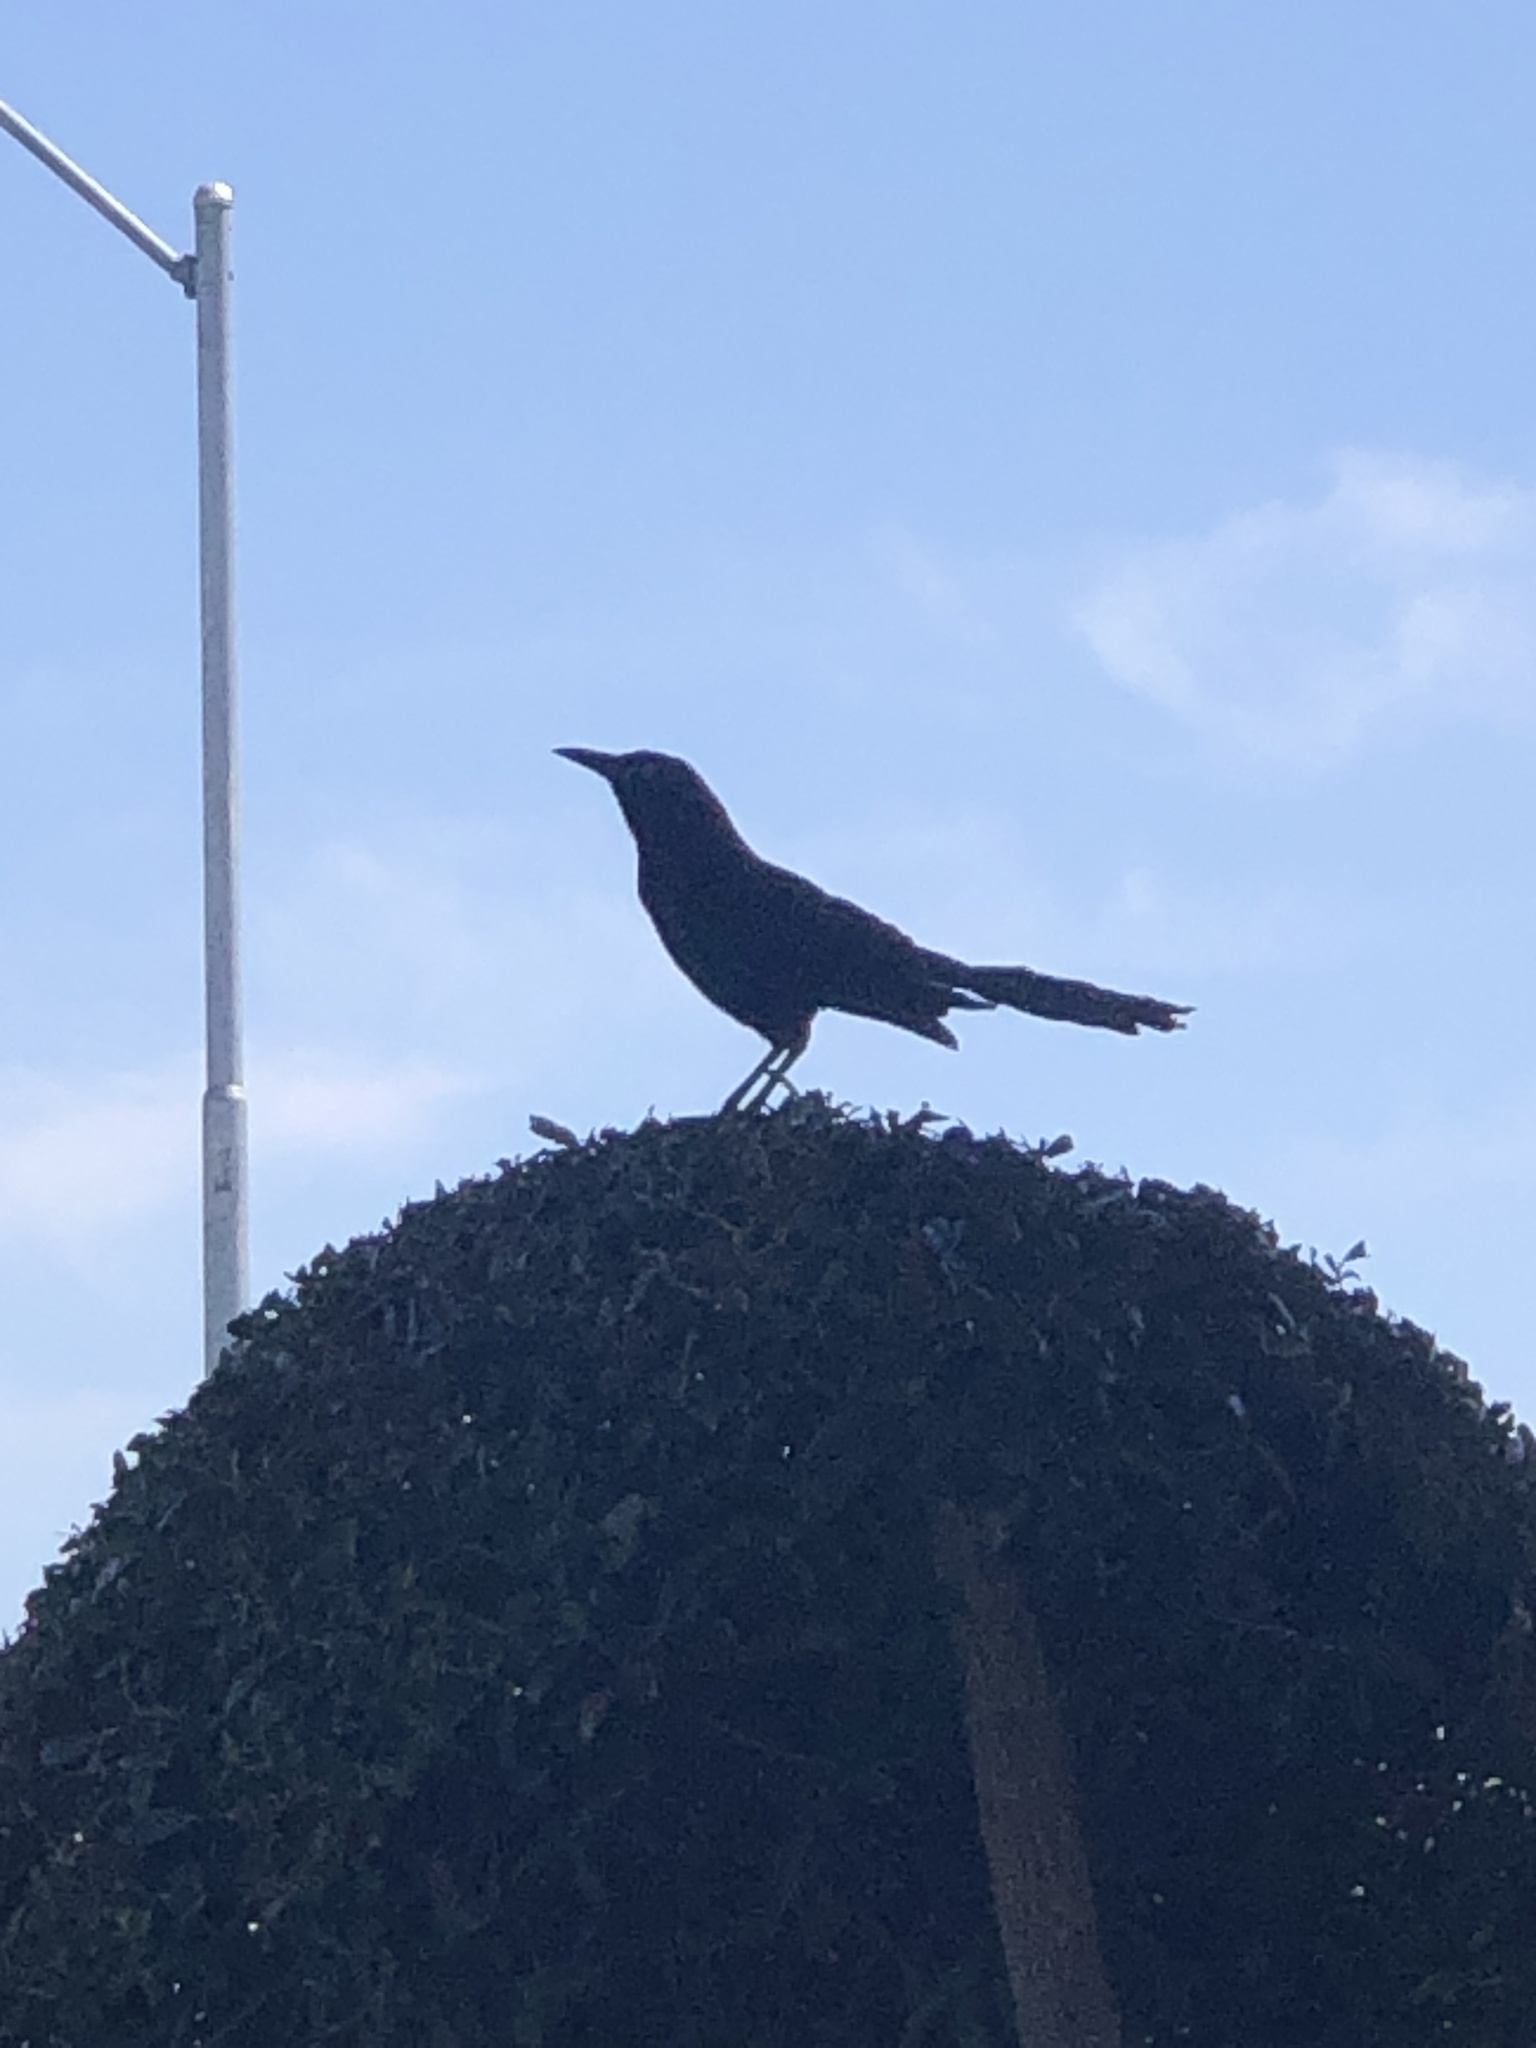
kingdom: Animalia
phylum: Chordata
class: Aves
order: Passeriformes
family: Icteridae
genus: Quiscalus
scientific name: Quiscalus mexicanus
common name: Great-tailed grackle
